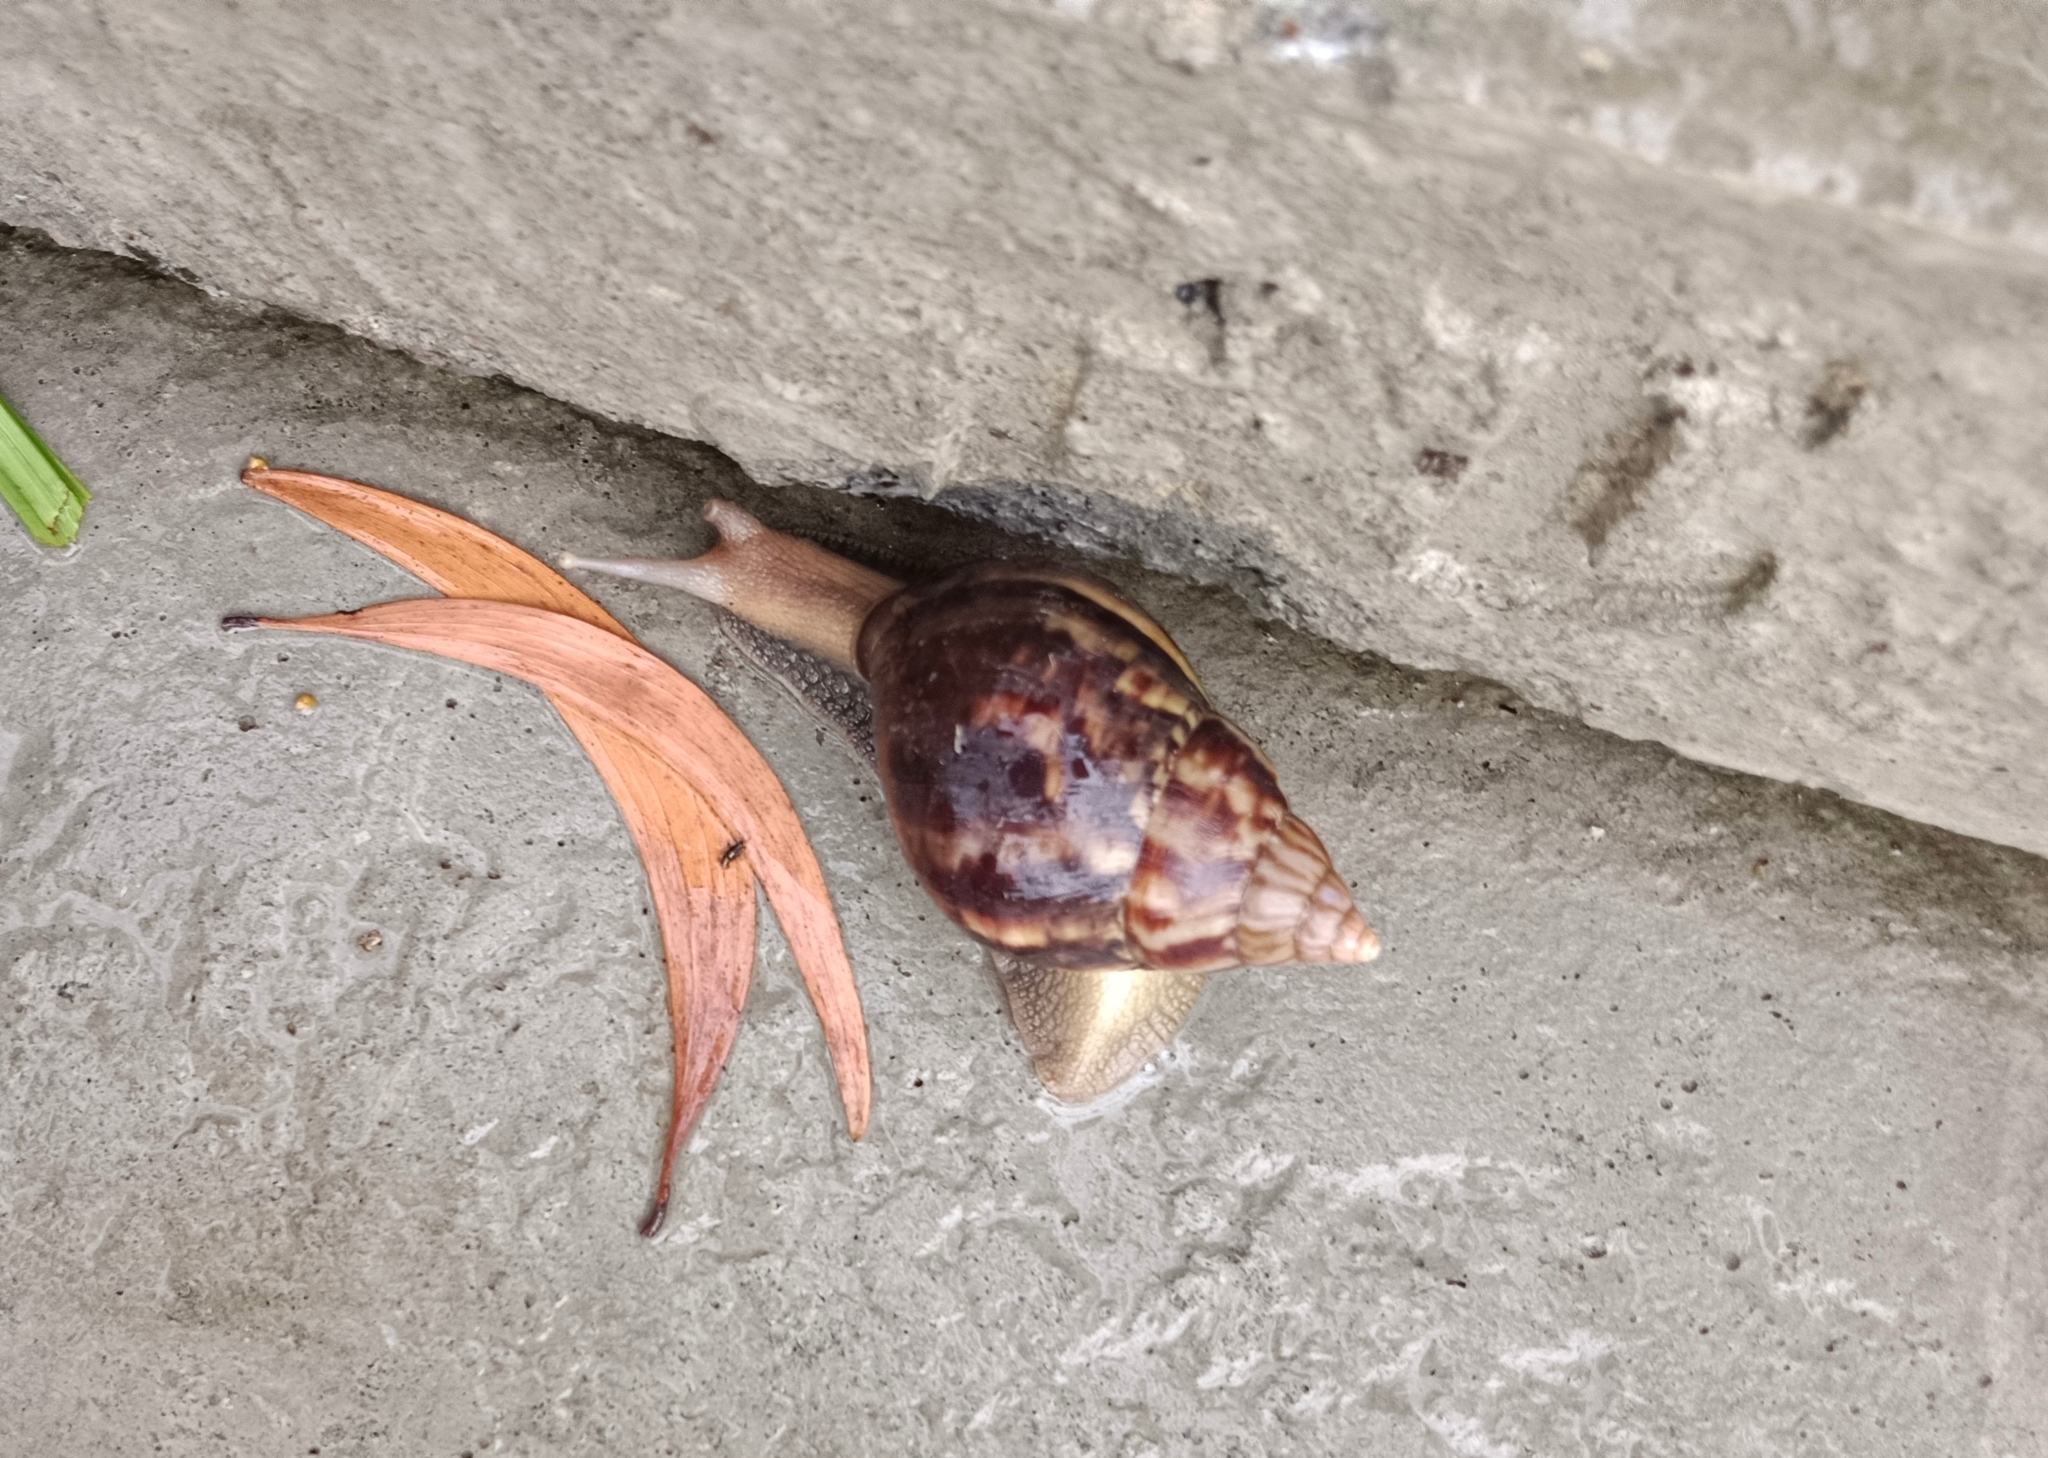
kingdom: Animalia
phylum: Mollusca
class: Gastropoda
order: Stylommatophora
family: Achatinidae
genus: Lissachatina
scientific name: Lissachatina fulica
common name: Giant african snail
